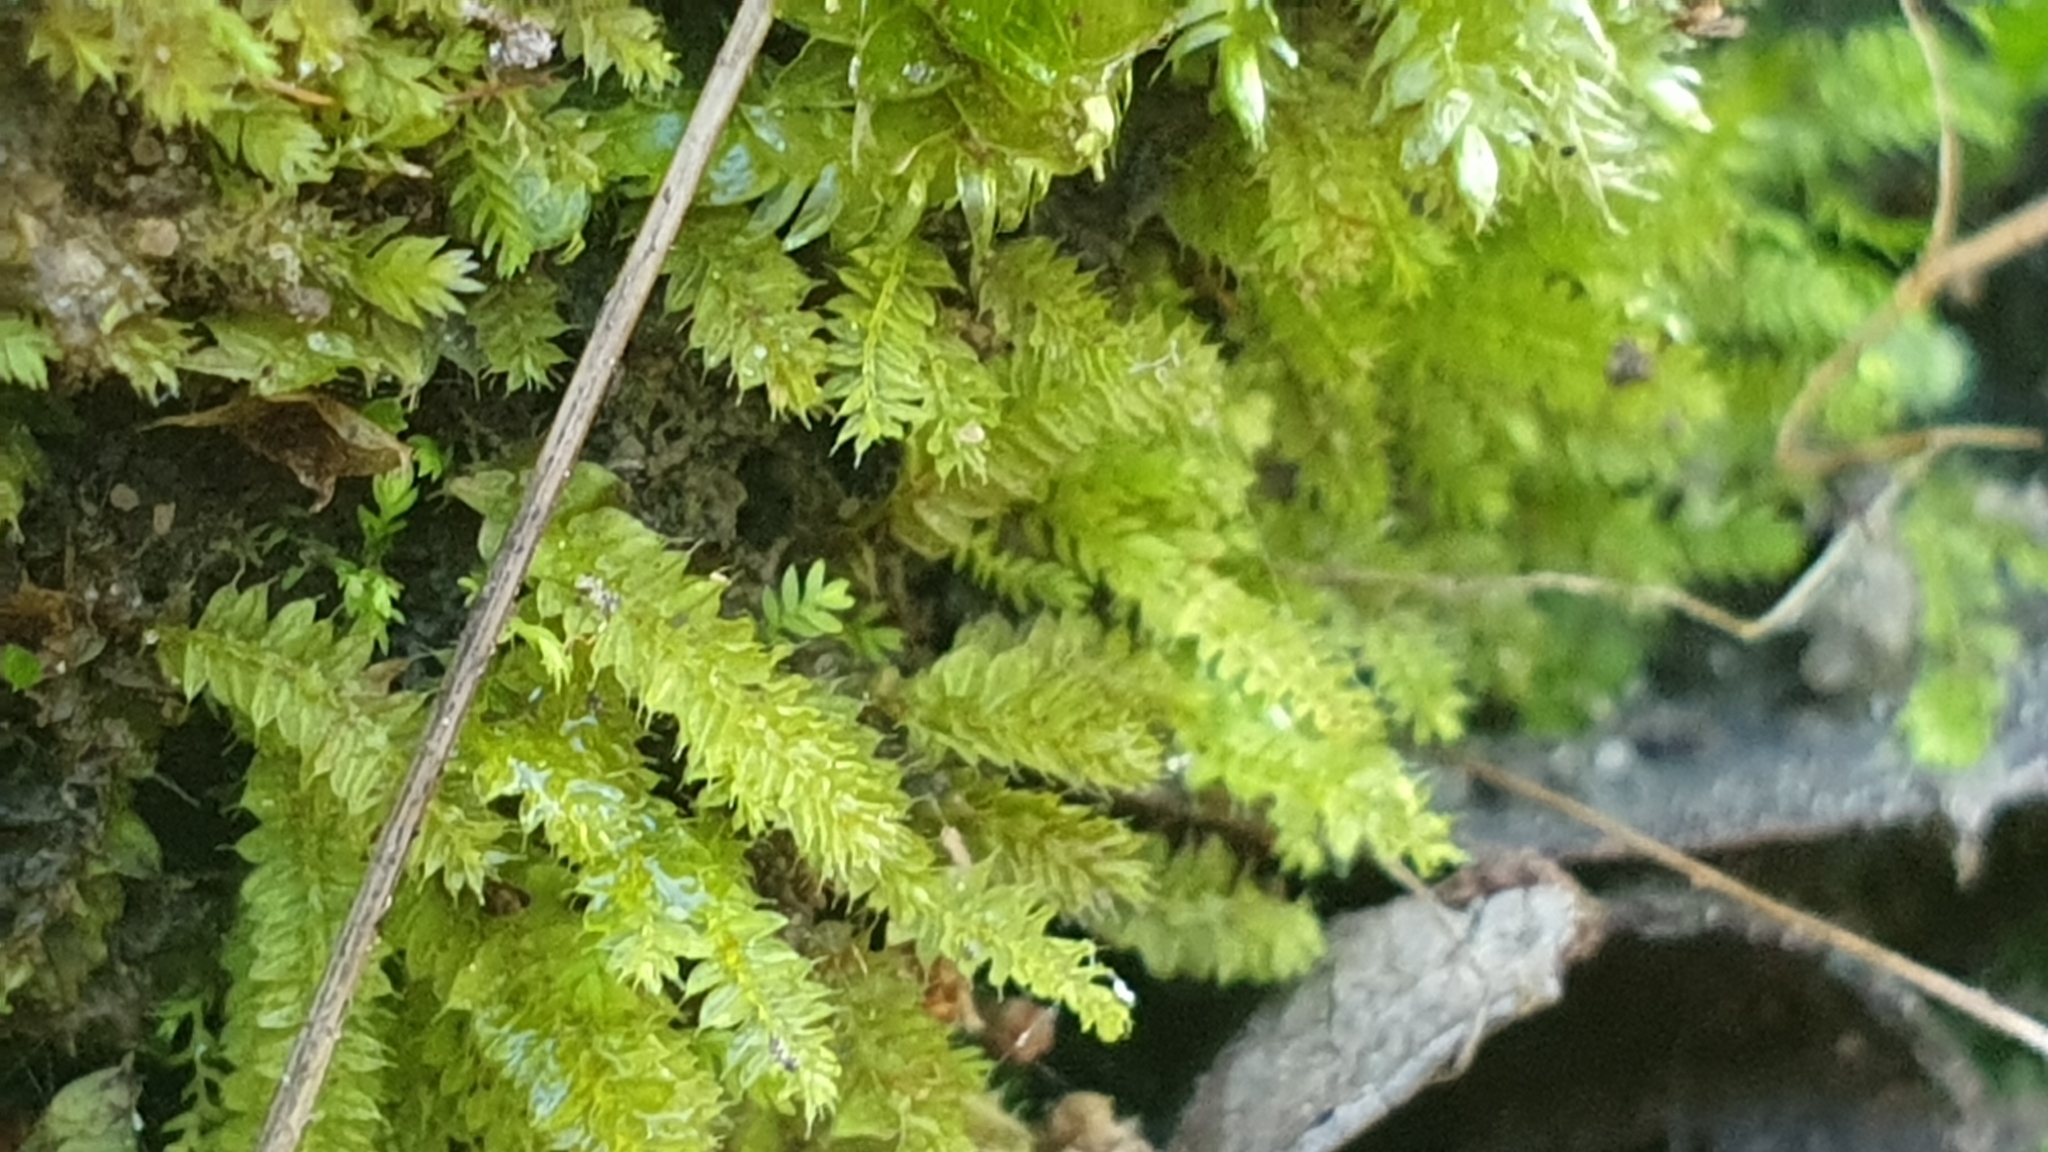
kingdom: Plantae
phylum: Bryophyta
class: Bryopsida
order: Hypnodendrales
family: Racopilaceae
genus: Racopilum
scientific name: Racopilum cuspidigerum
